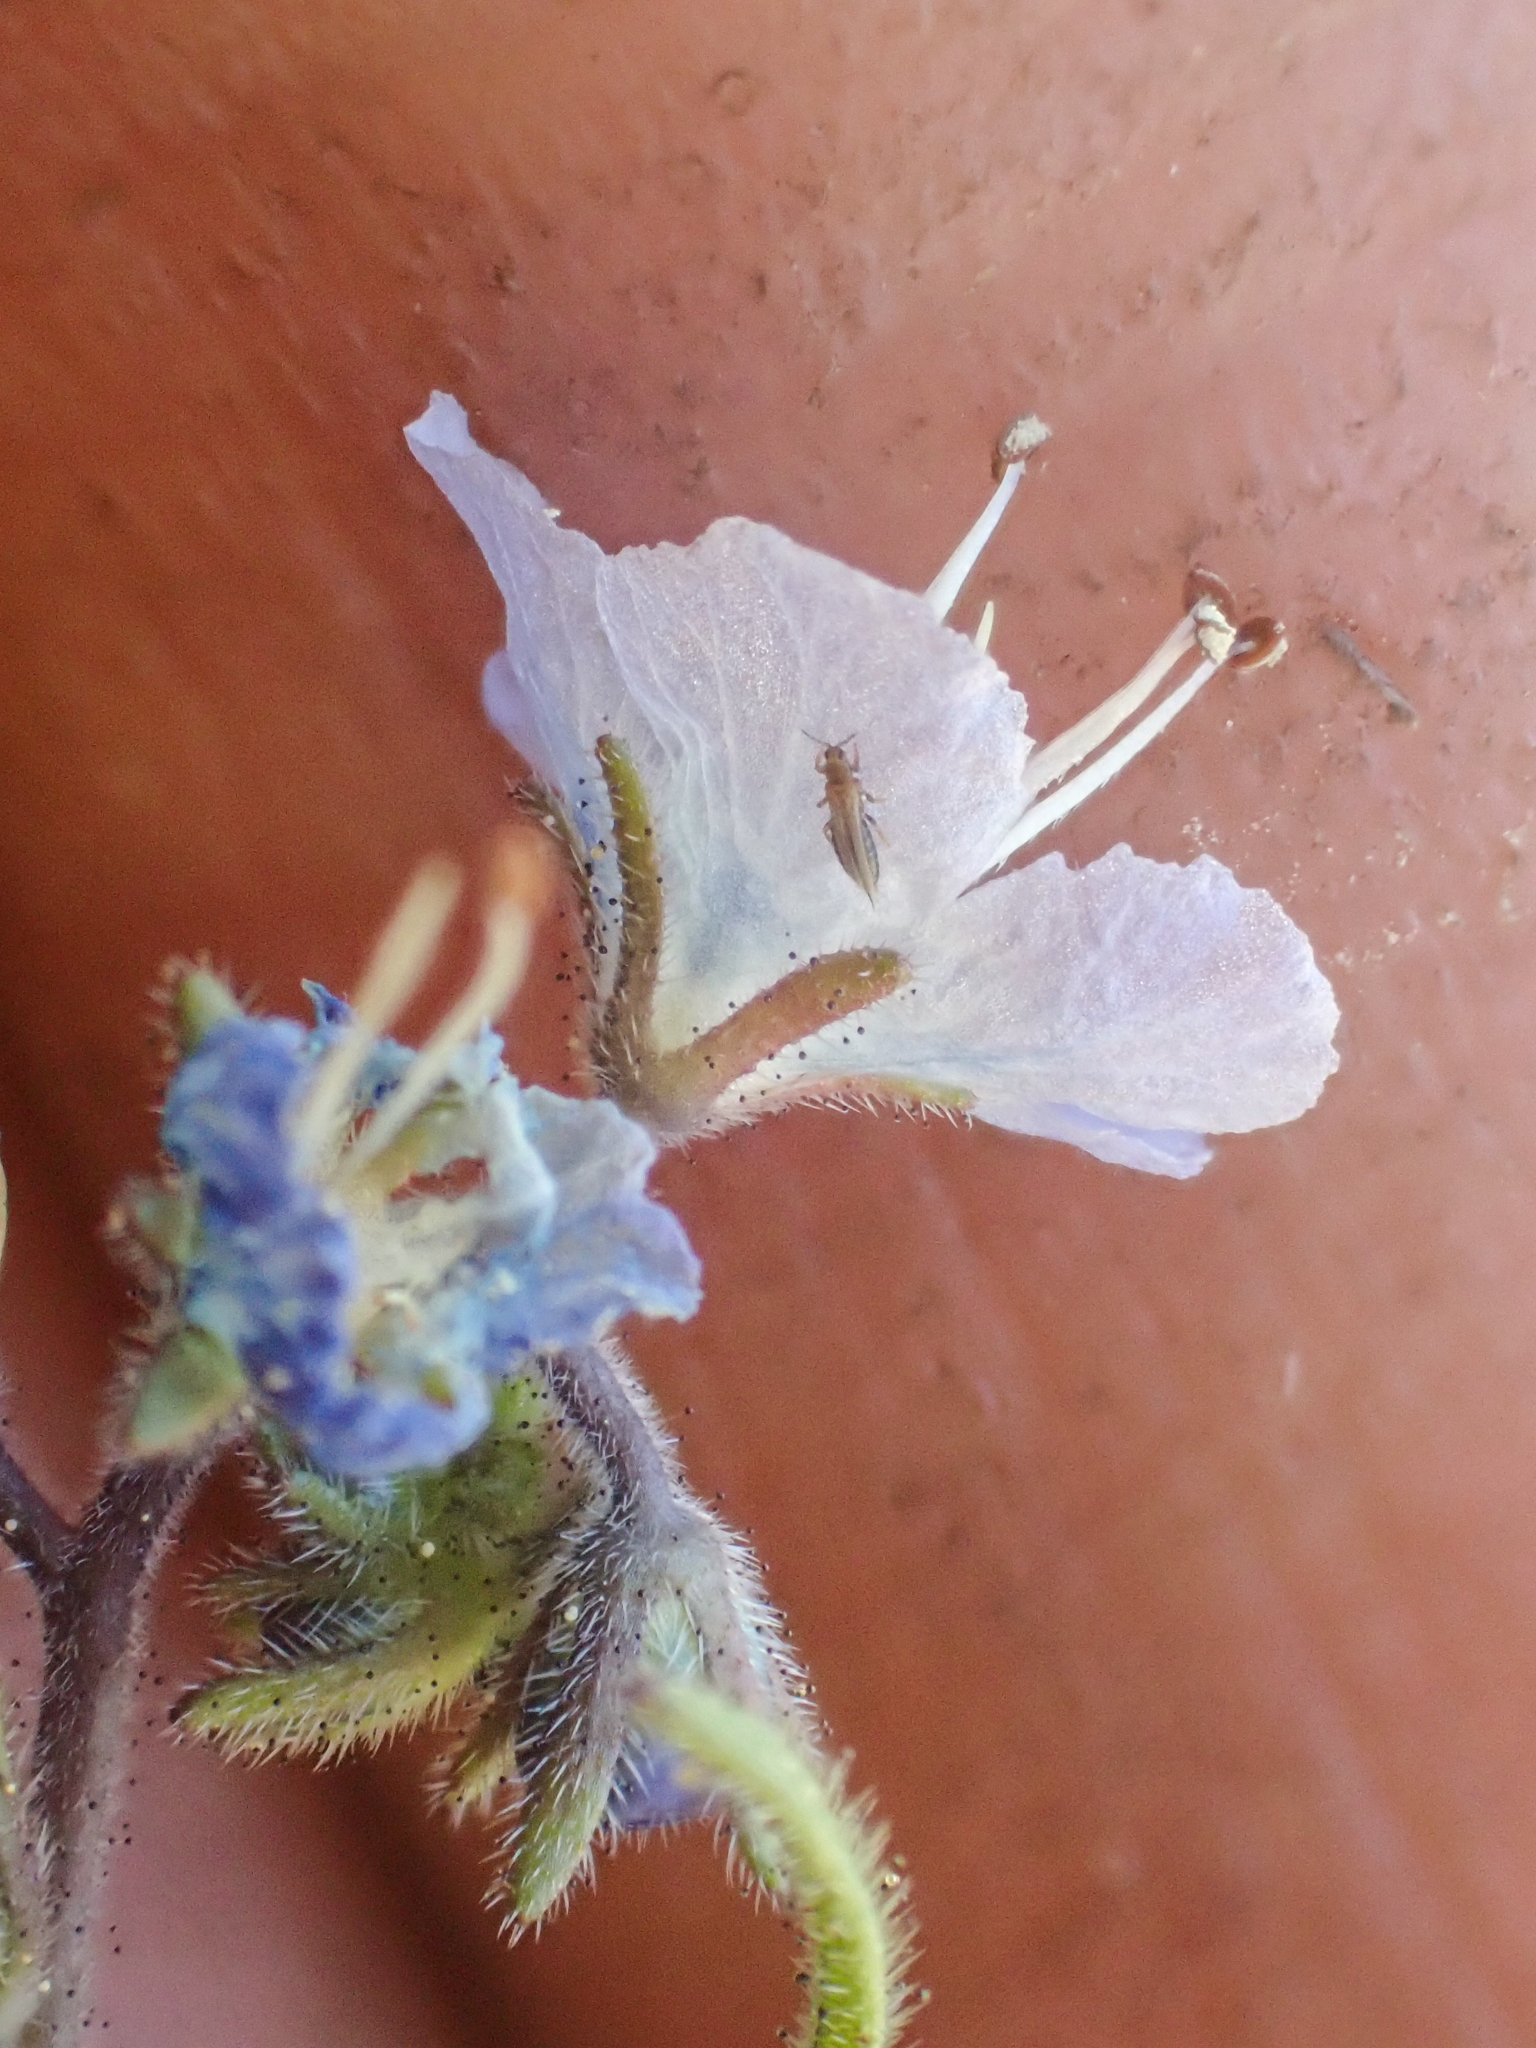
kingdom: Plantae
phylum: Tracheophyta
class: Magnoliopsida
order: Boraginales
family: Hydrophyllaceae
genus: Phacelia
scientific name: Phacelia pringlei
